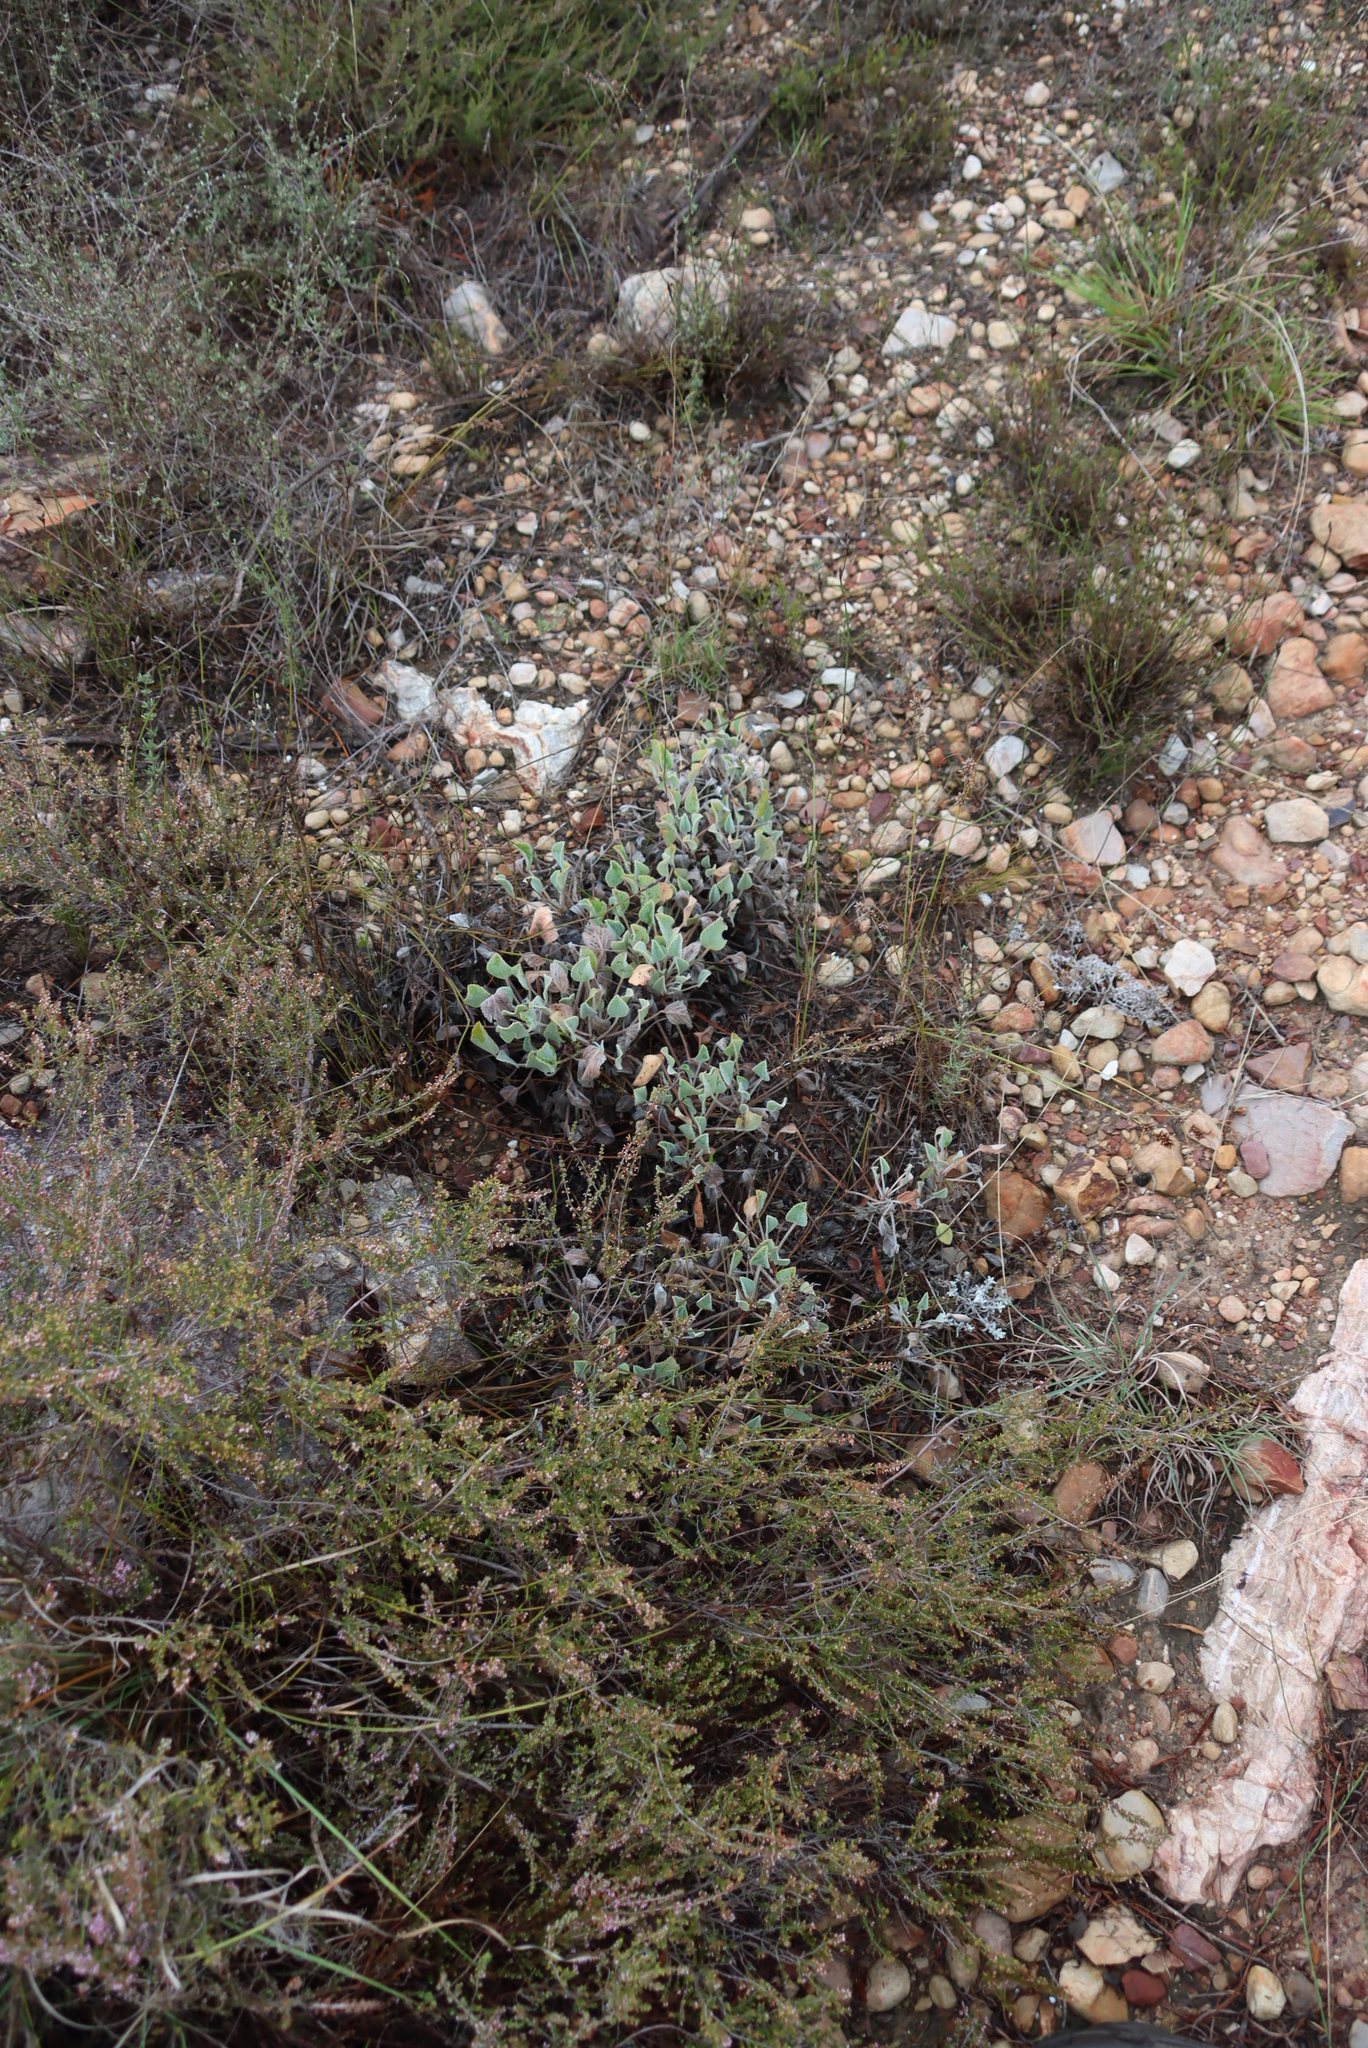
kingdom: Plantae
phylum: Tracheophyta
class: Magnoliopsida
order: Geraniales
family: Geraniaceae
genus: Pelargonium
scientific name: Pelargonium ovale
